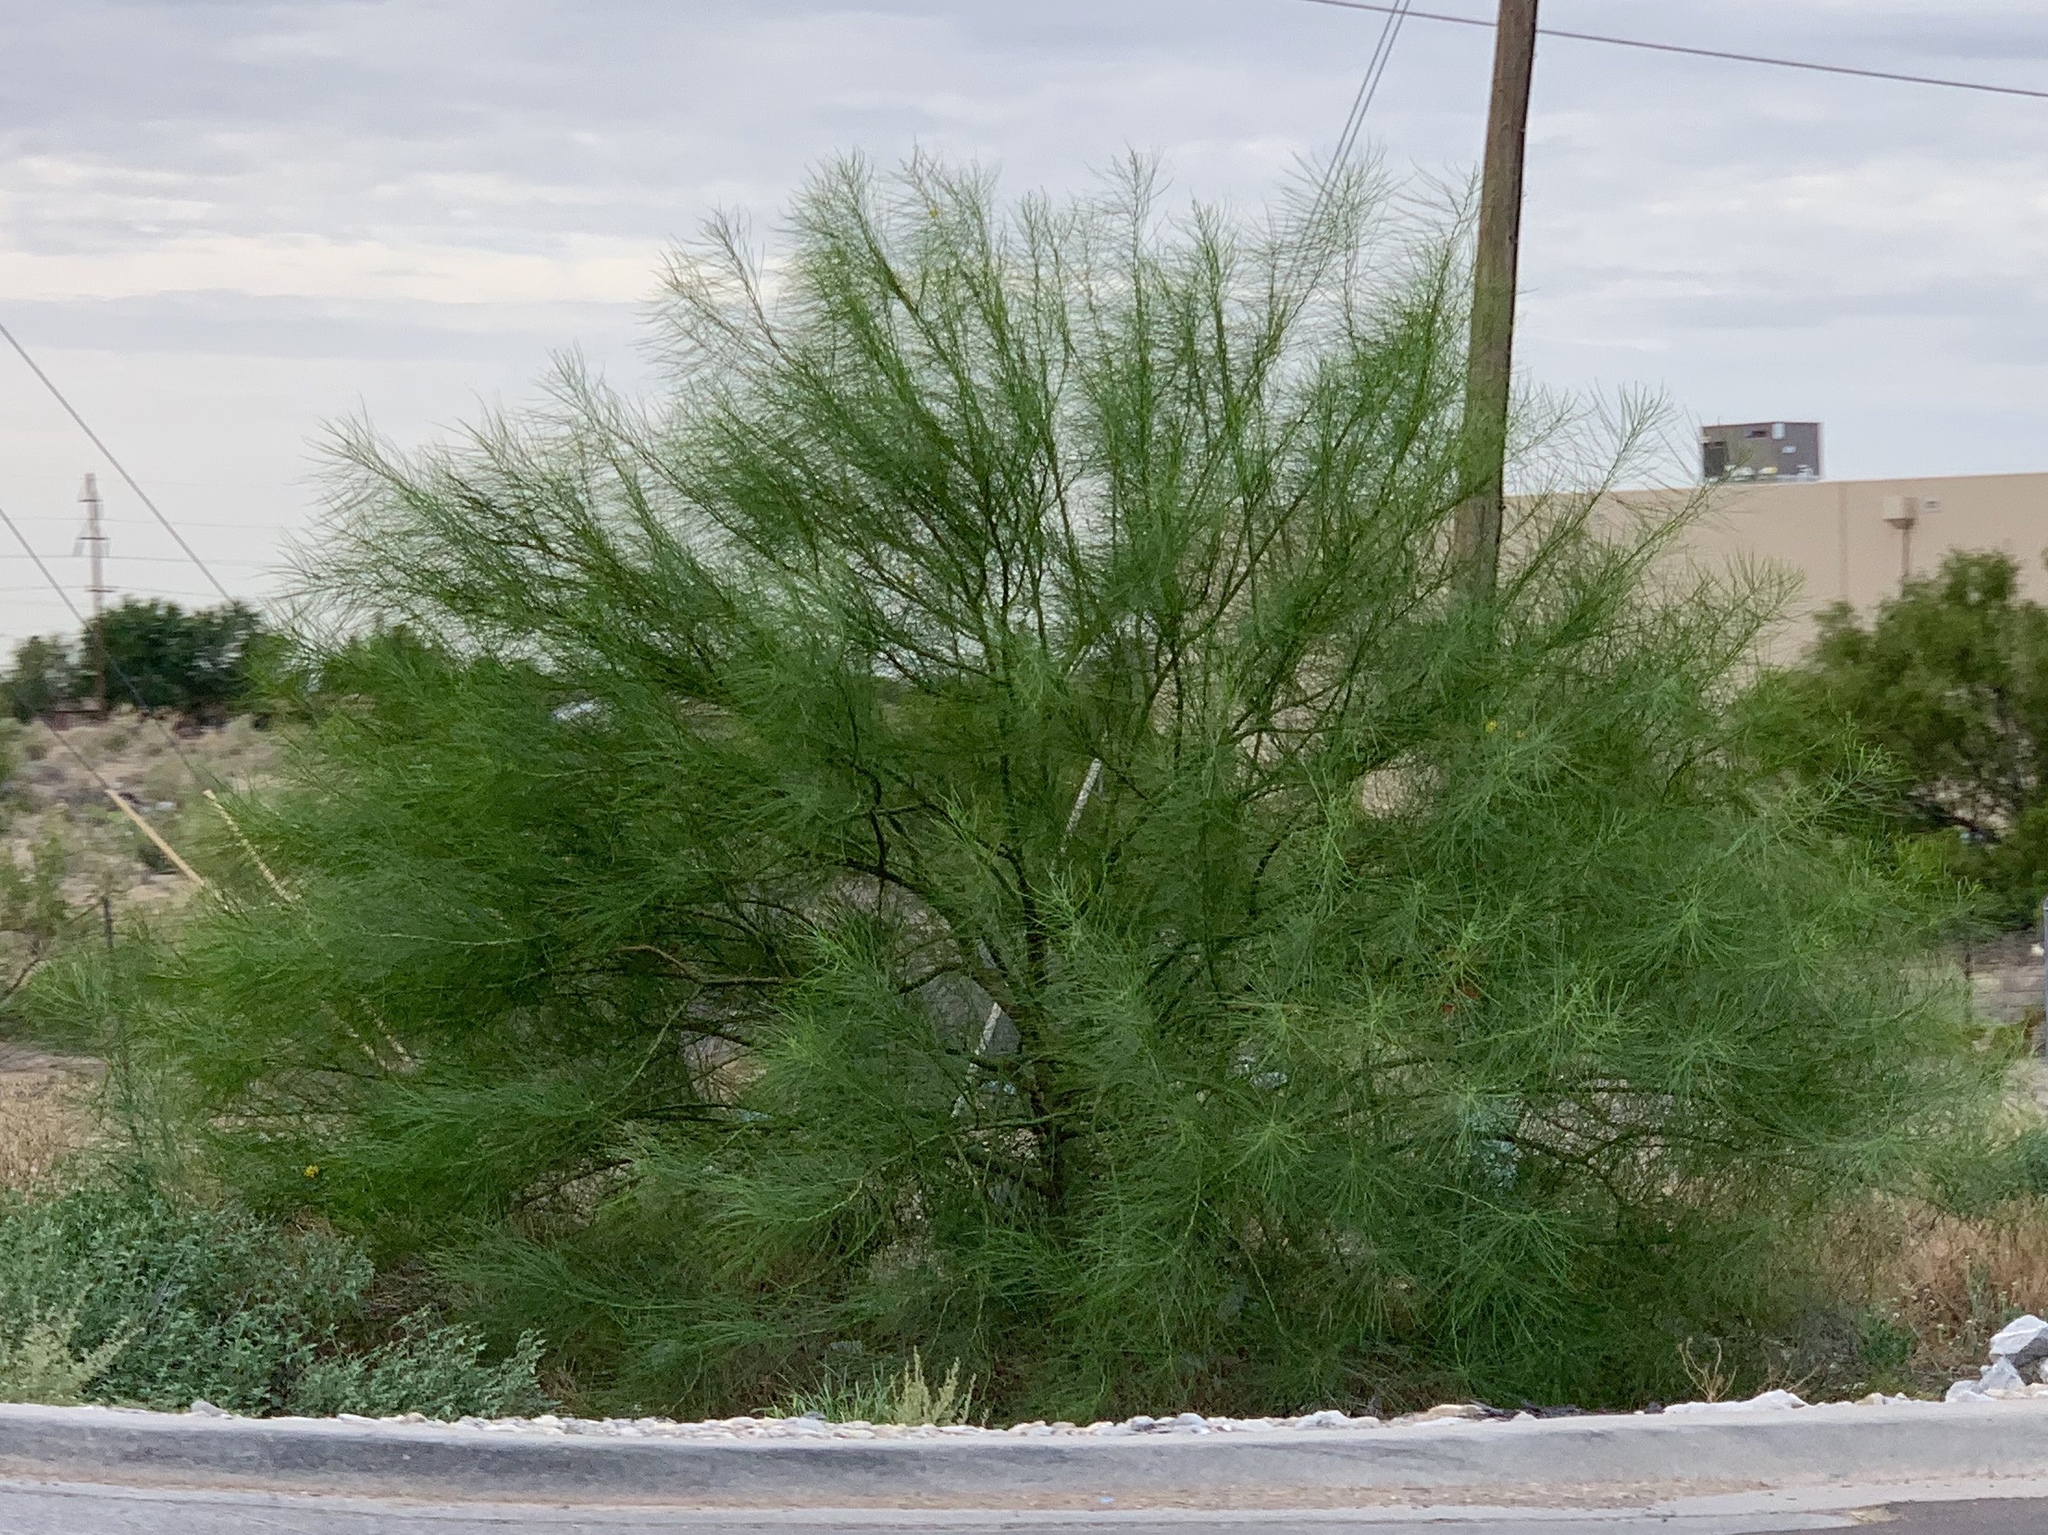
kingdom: Plantae
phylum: Tracheophyta
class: Magnoliopsida
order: Fabales
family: Fabaceae
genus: Parkinsonia
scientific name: Parkinsonia aculeata
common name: Jerusalem thorn
